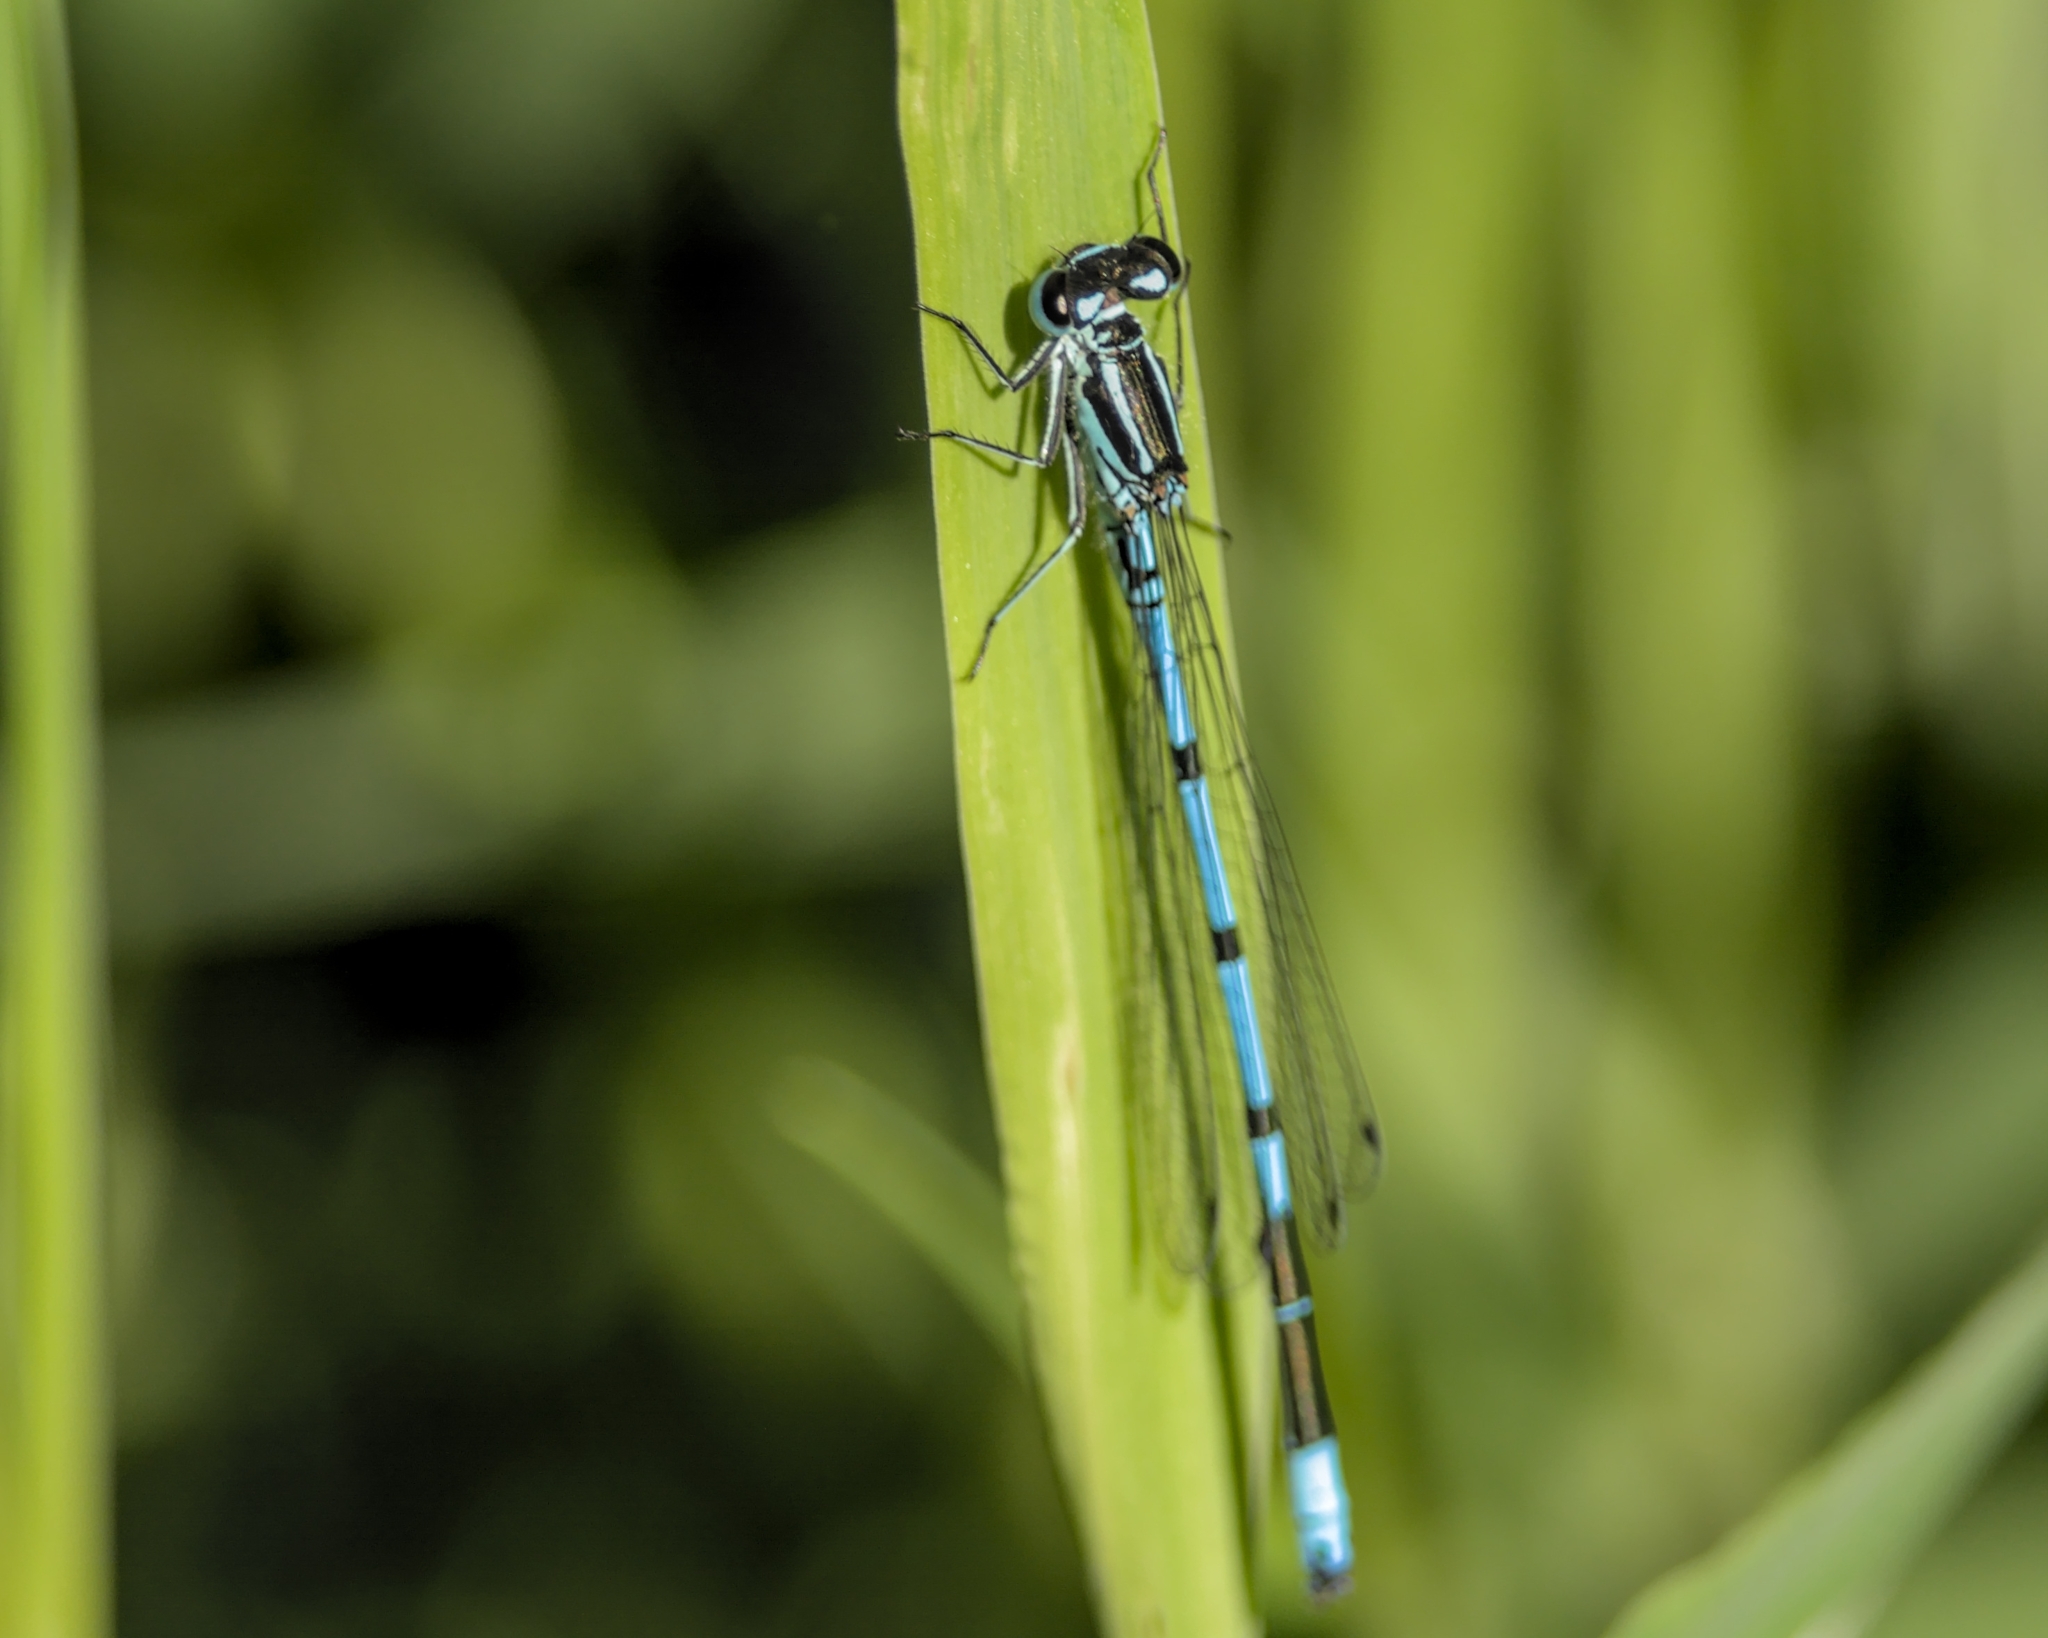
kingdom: Animalia
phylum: Arthropoda
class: Insecta
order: Odonata
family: Coenagrionidae
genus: Coenagrion
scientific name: Coenagrion puella
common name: Azure damselfly
